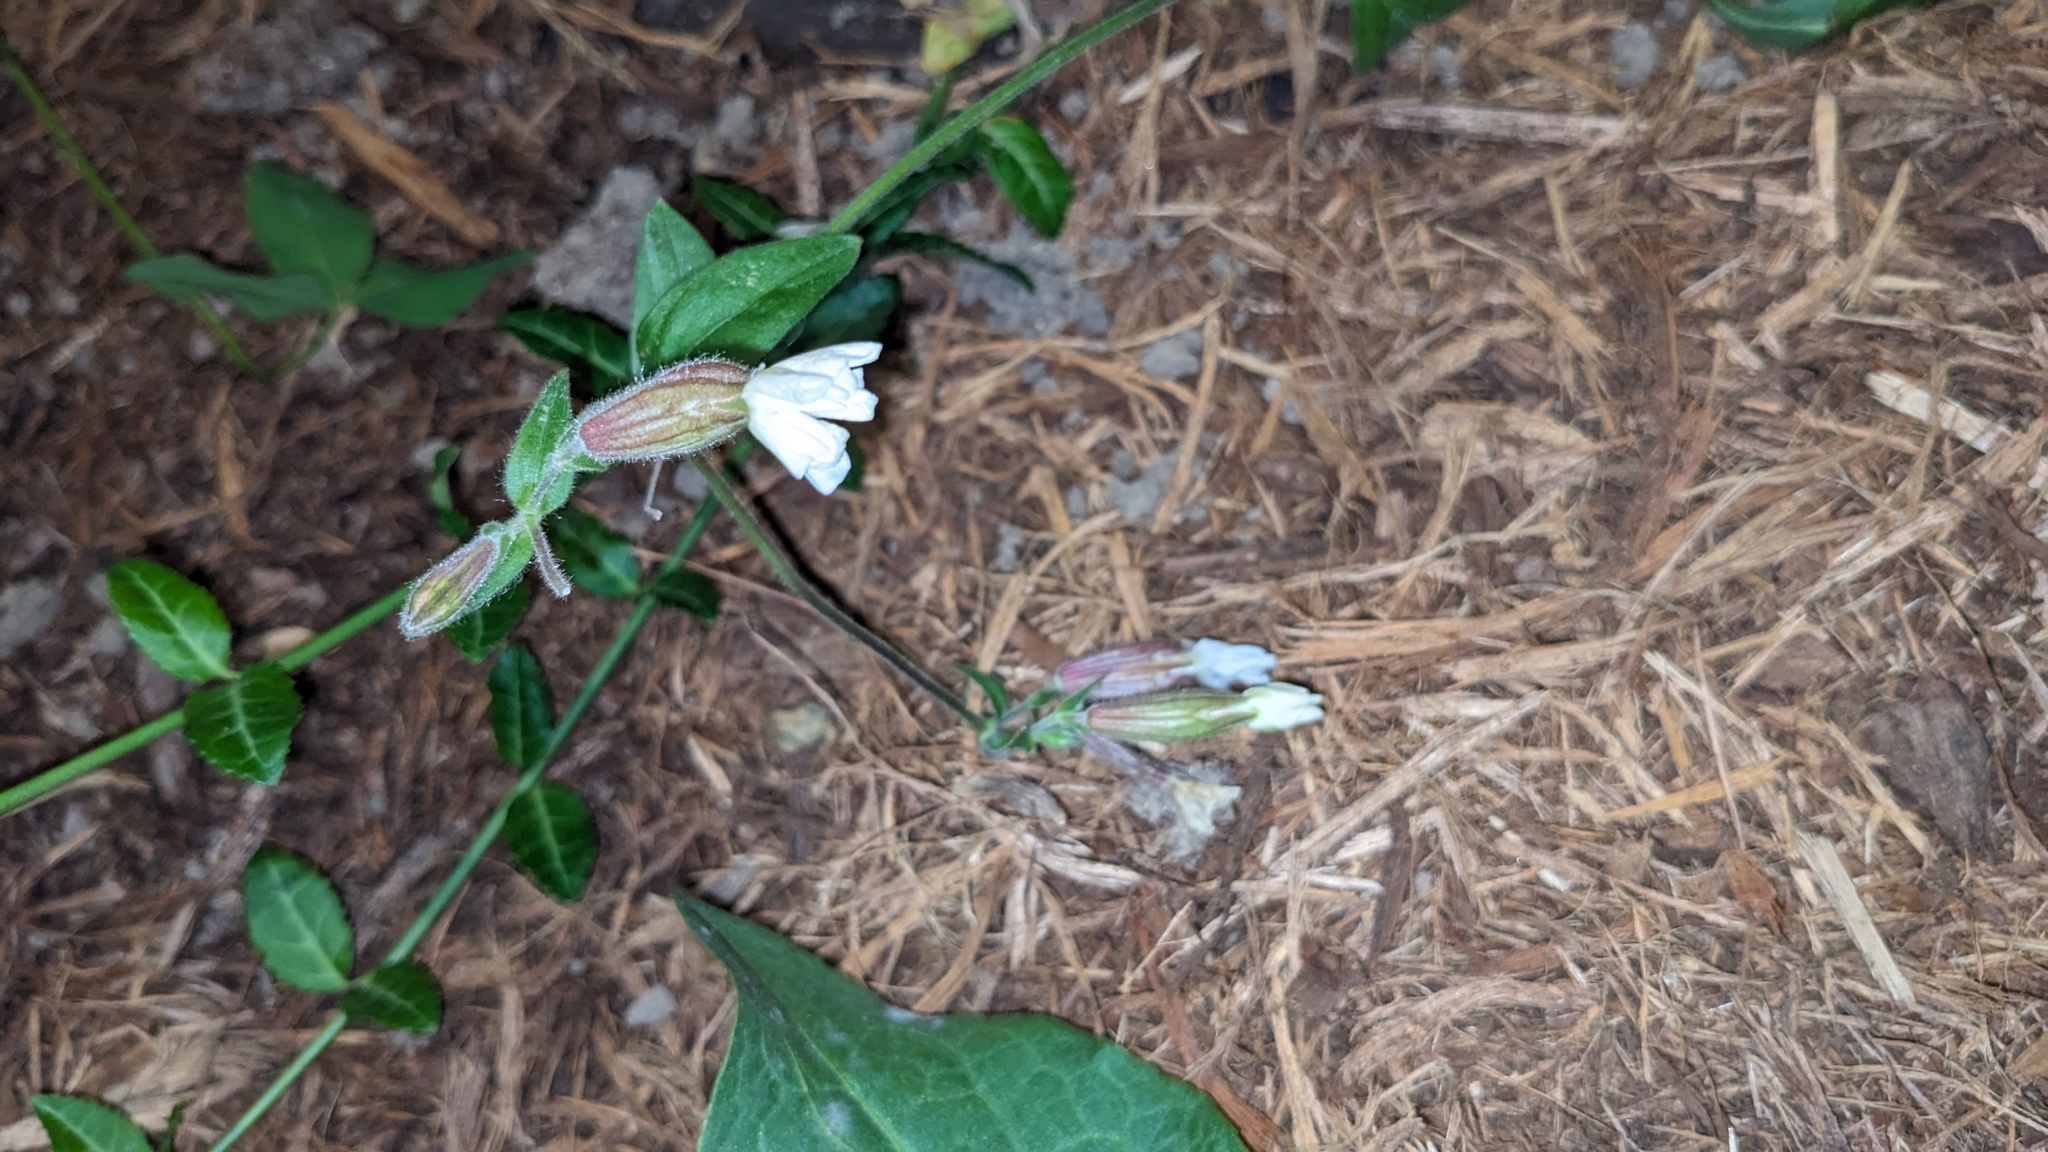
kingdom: Plantae
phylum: Tracheophyta
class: Magnoliopsida
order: Caryophyllales
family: Caryophyllaceae
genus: Silene
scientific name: Silene latifolia
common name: White campion
